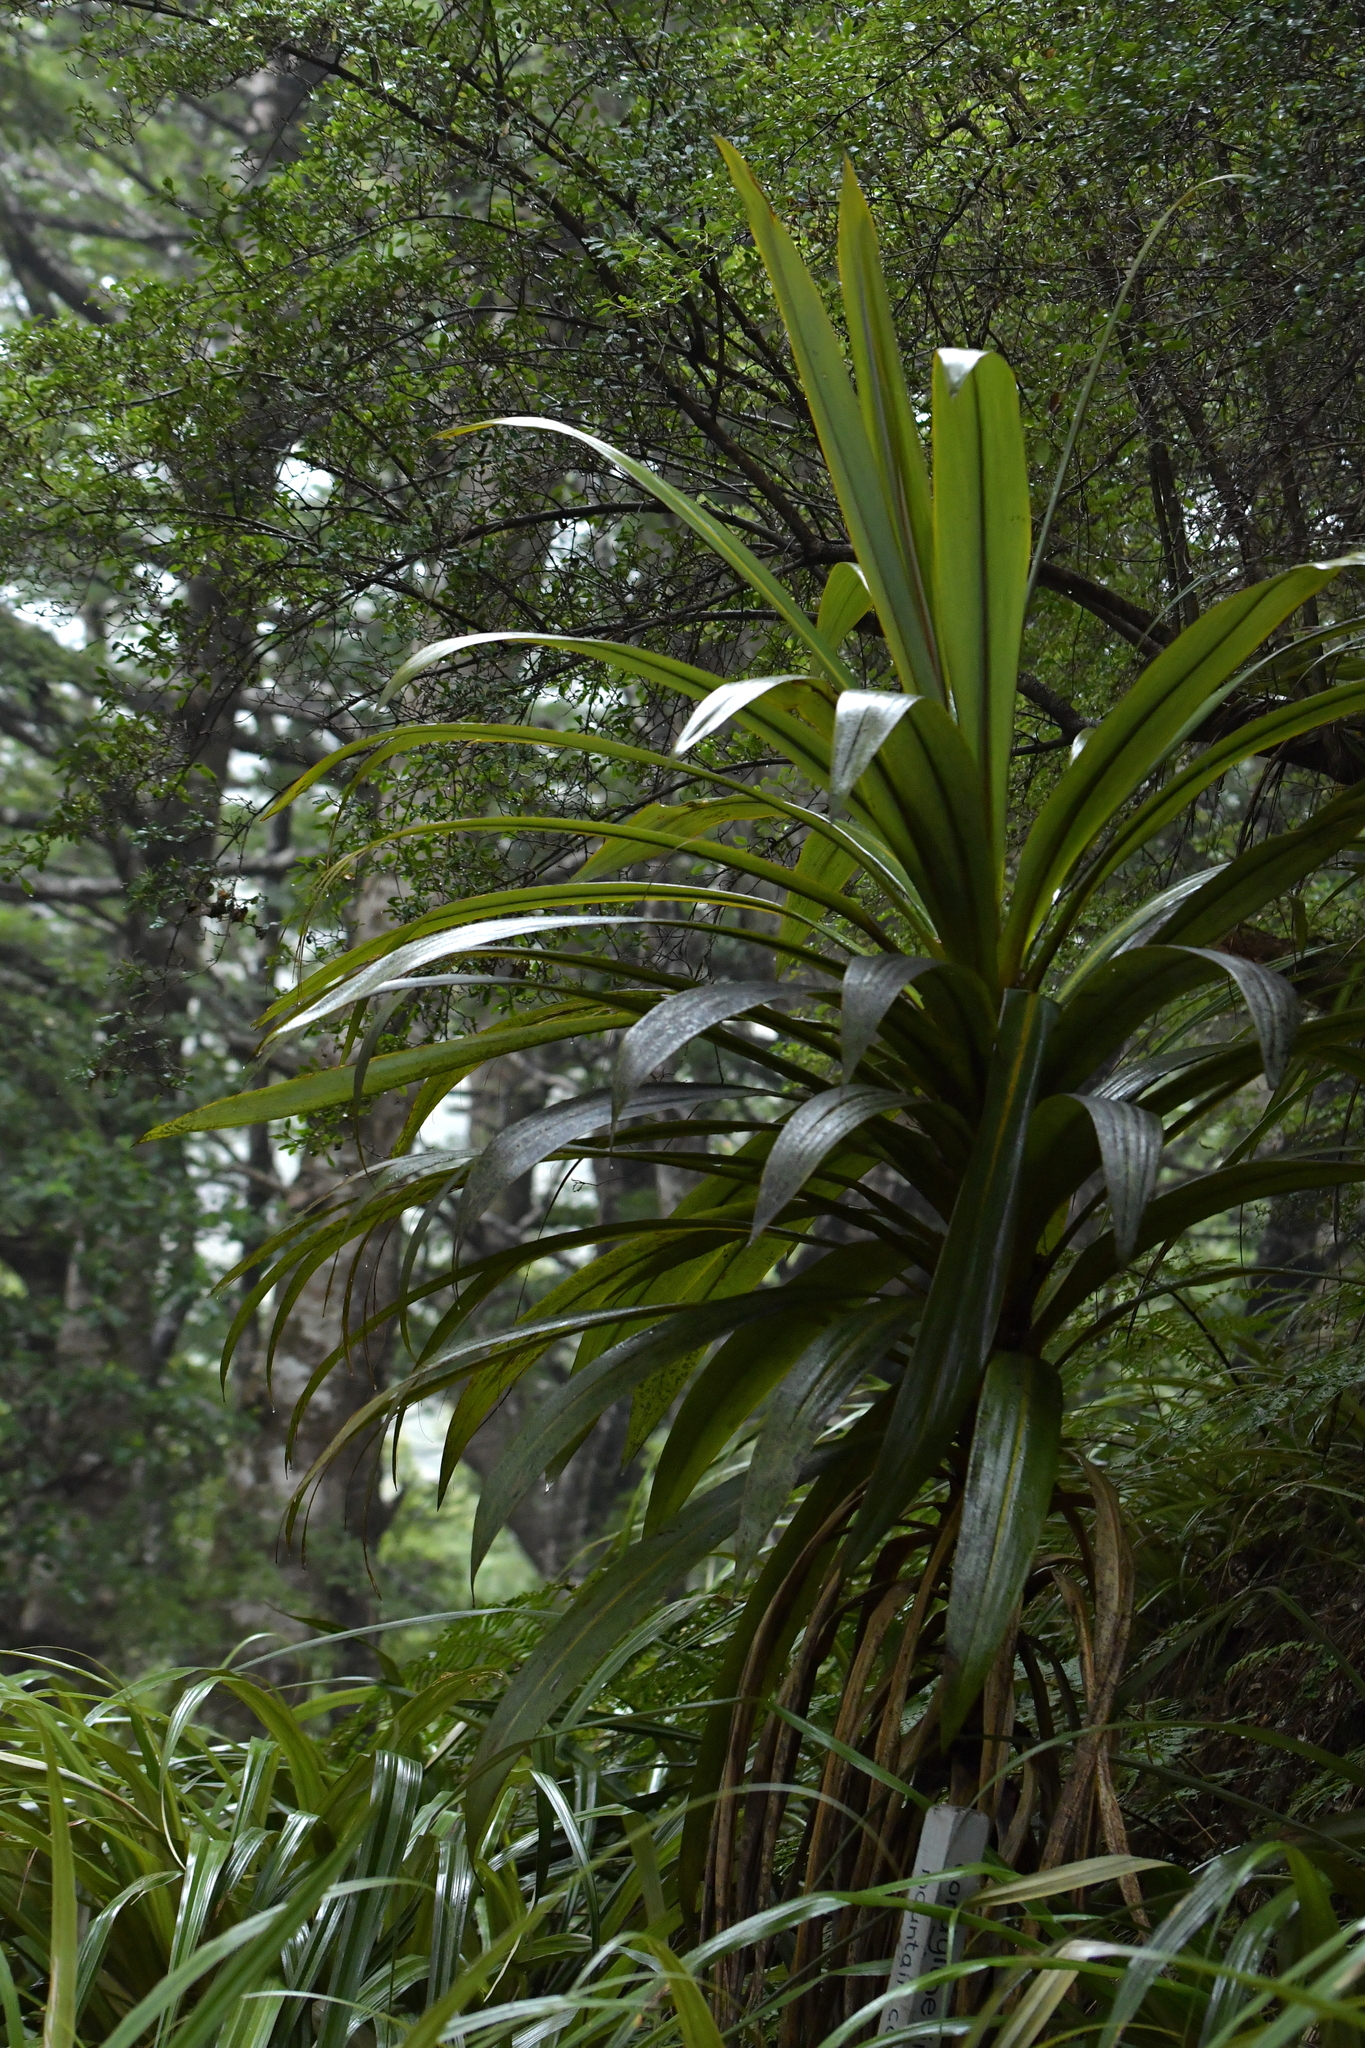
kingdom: Plantae
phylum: Tracheophyta
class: Liliopsida
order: Asparagales
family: Asparagaceae
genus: Cordyline
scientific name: Cordyline indivisa
